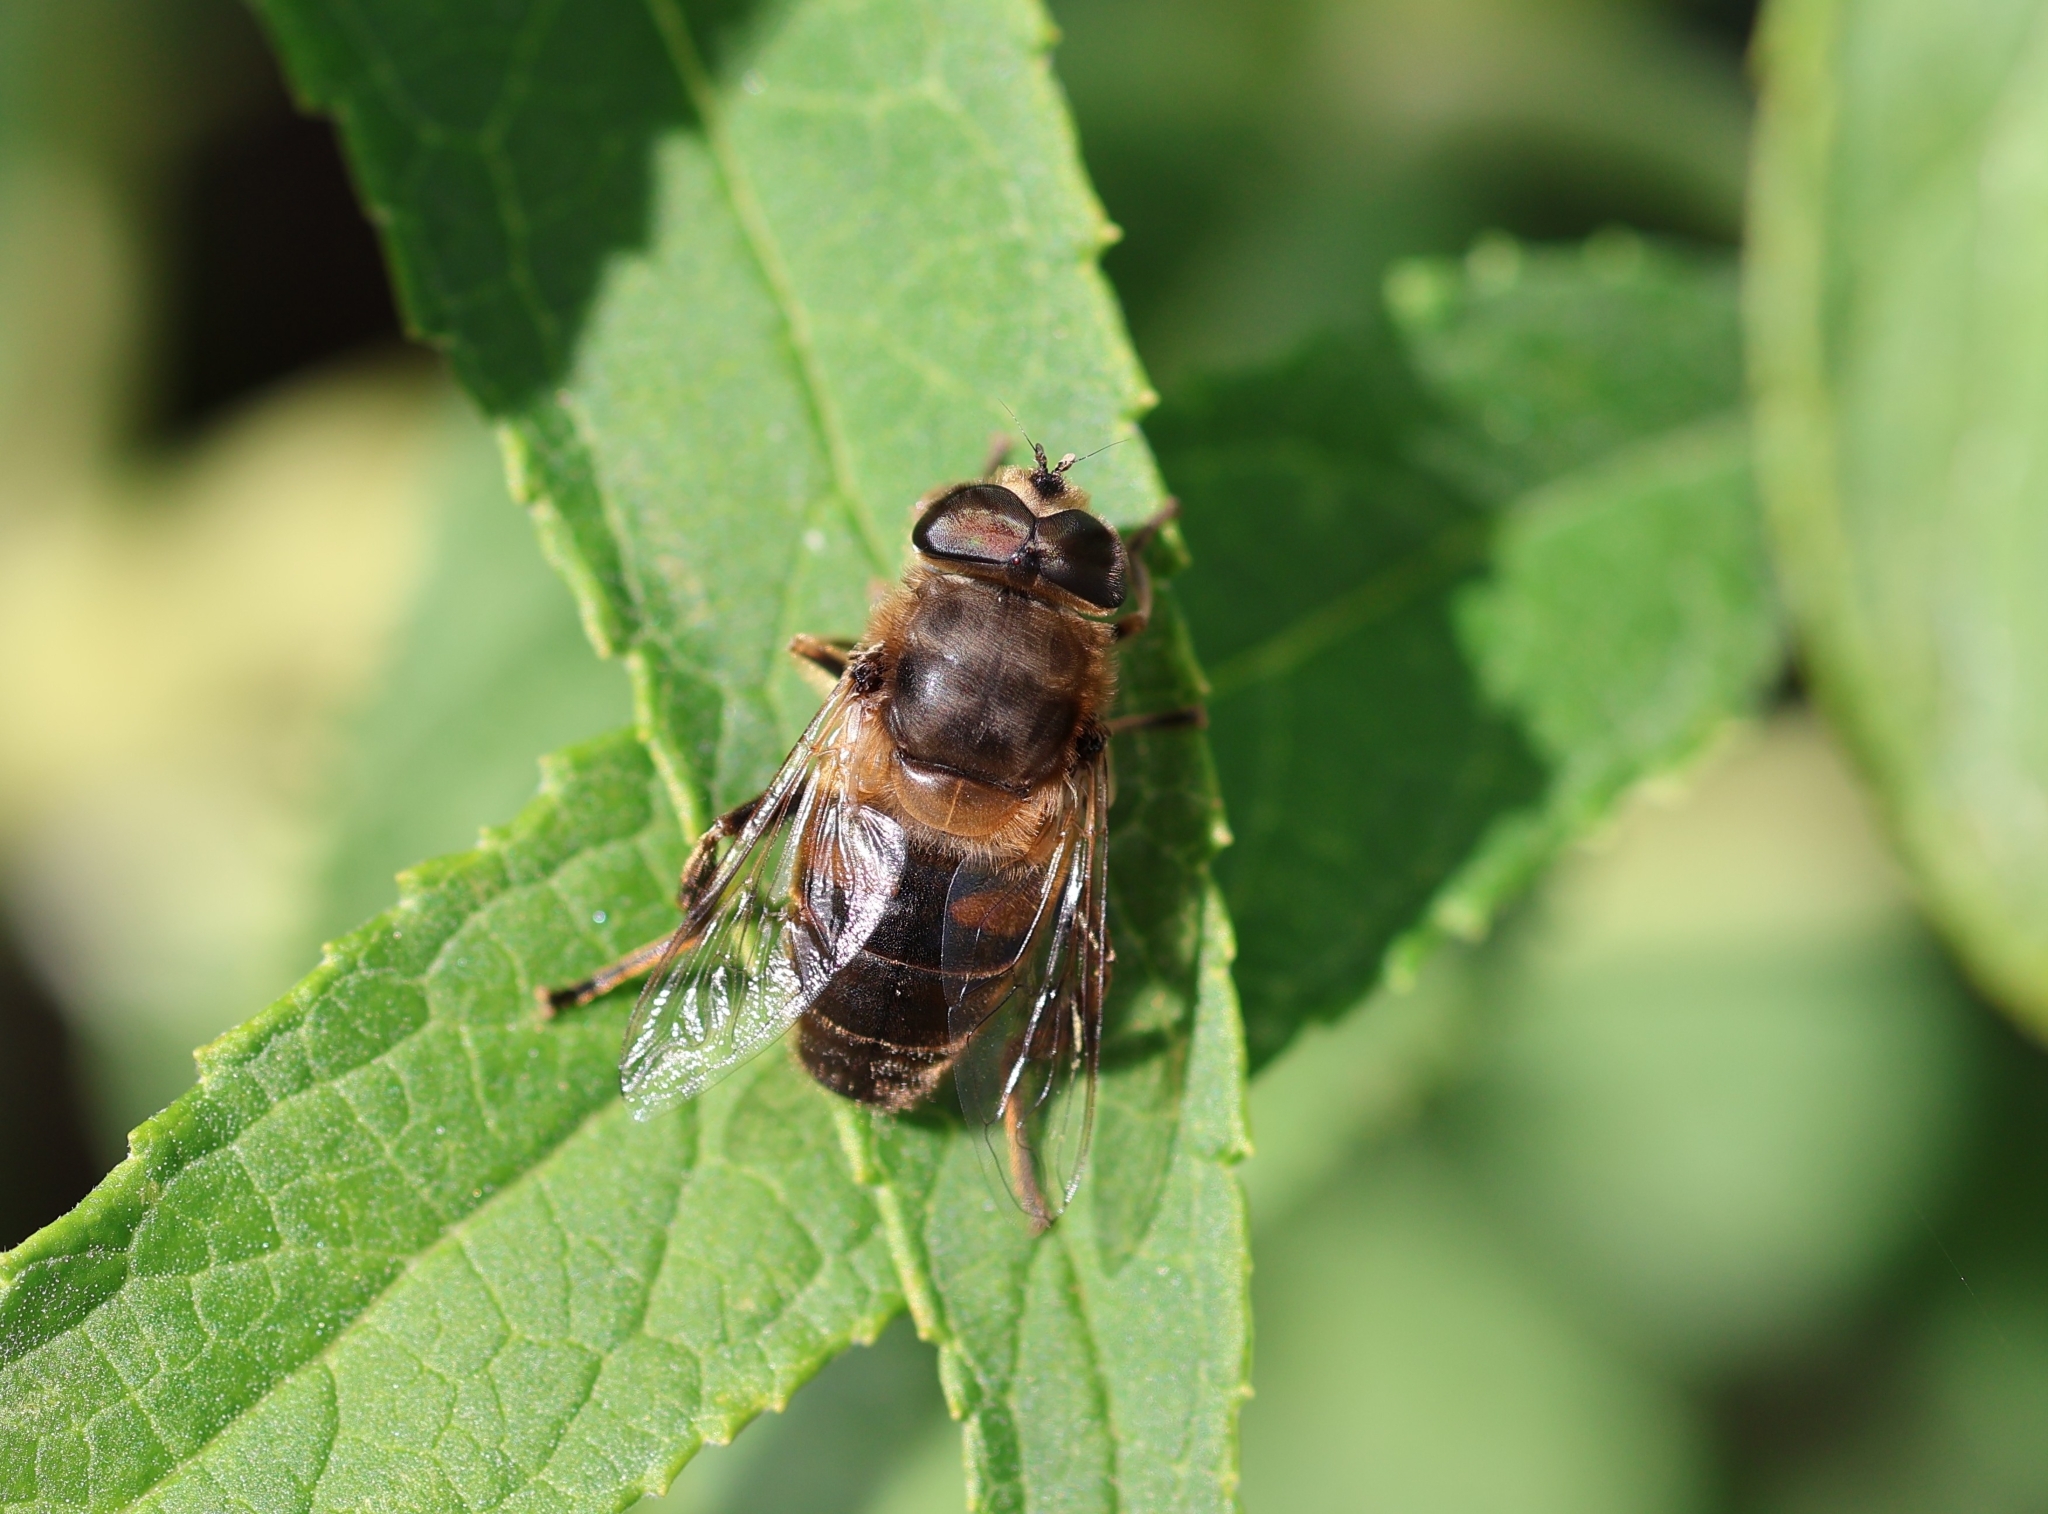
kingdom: Animalia
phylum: Arthropoda
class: Insecta
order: Diptera
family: Syrphidae
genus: Eristalis
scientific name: Eristalis tenax
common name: Drone fly
